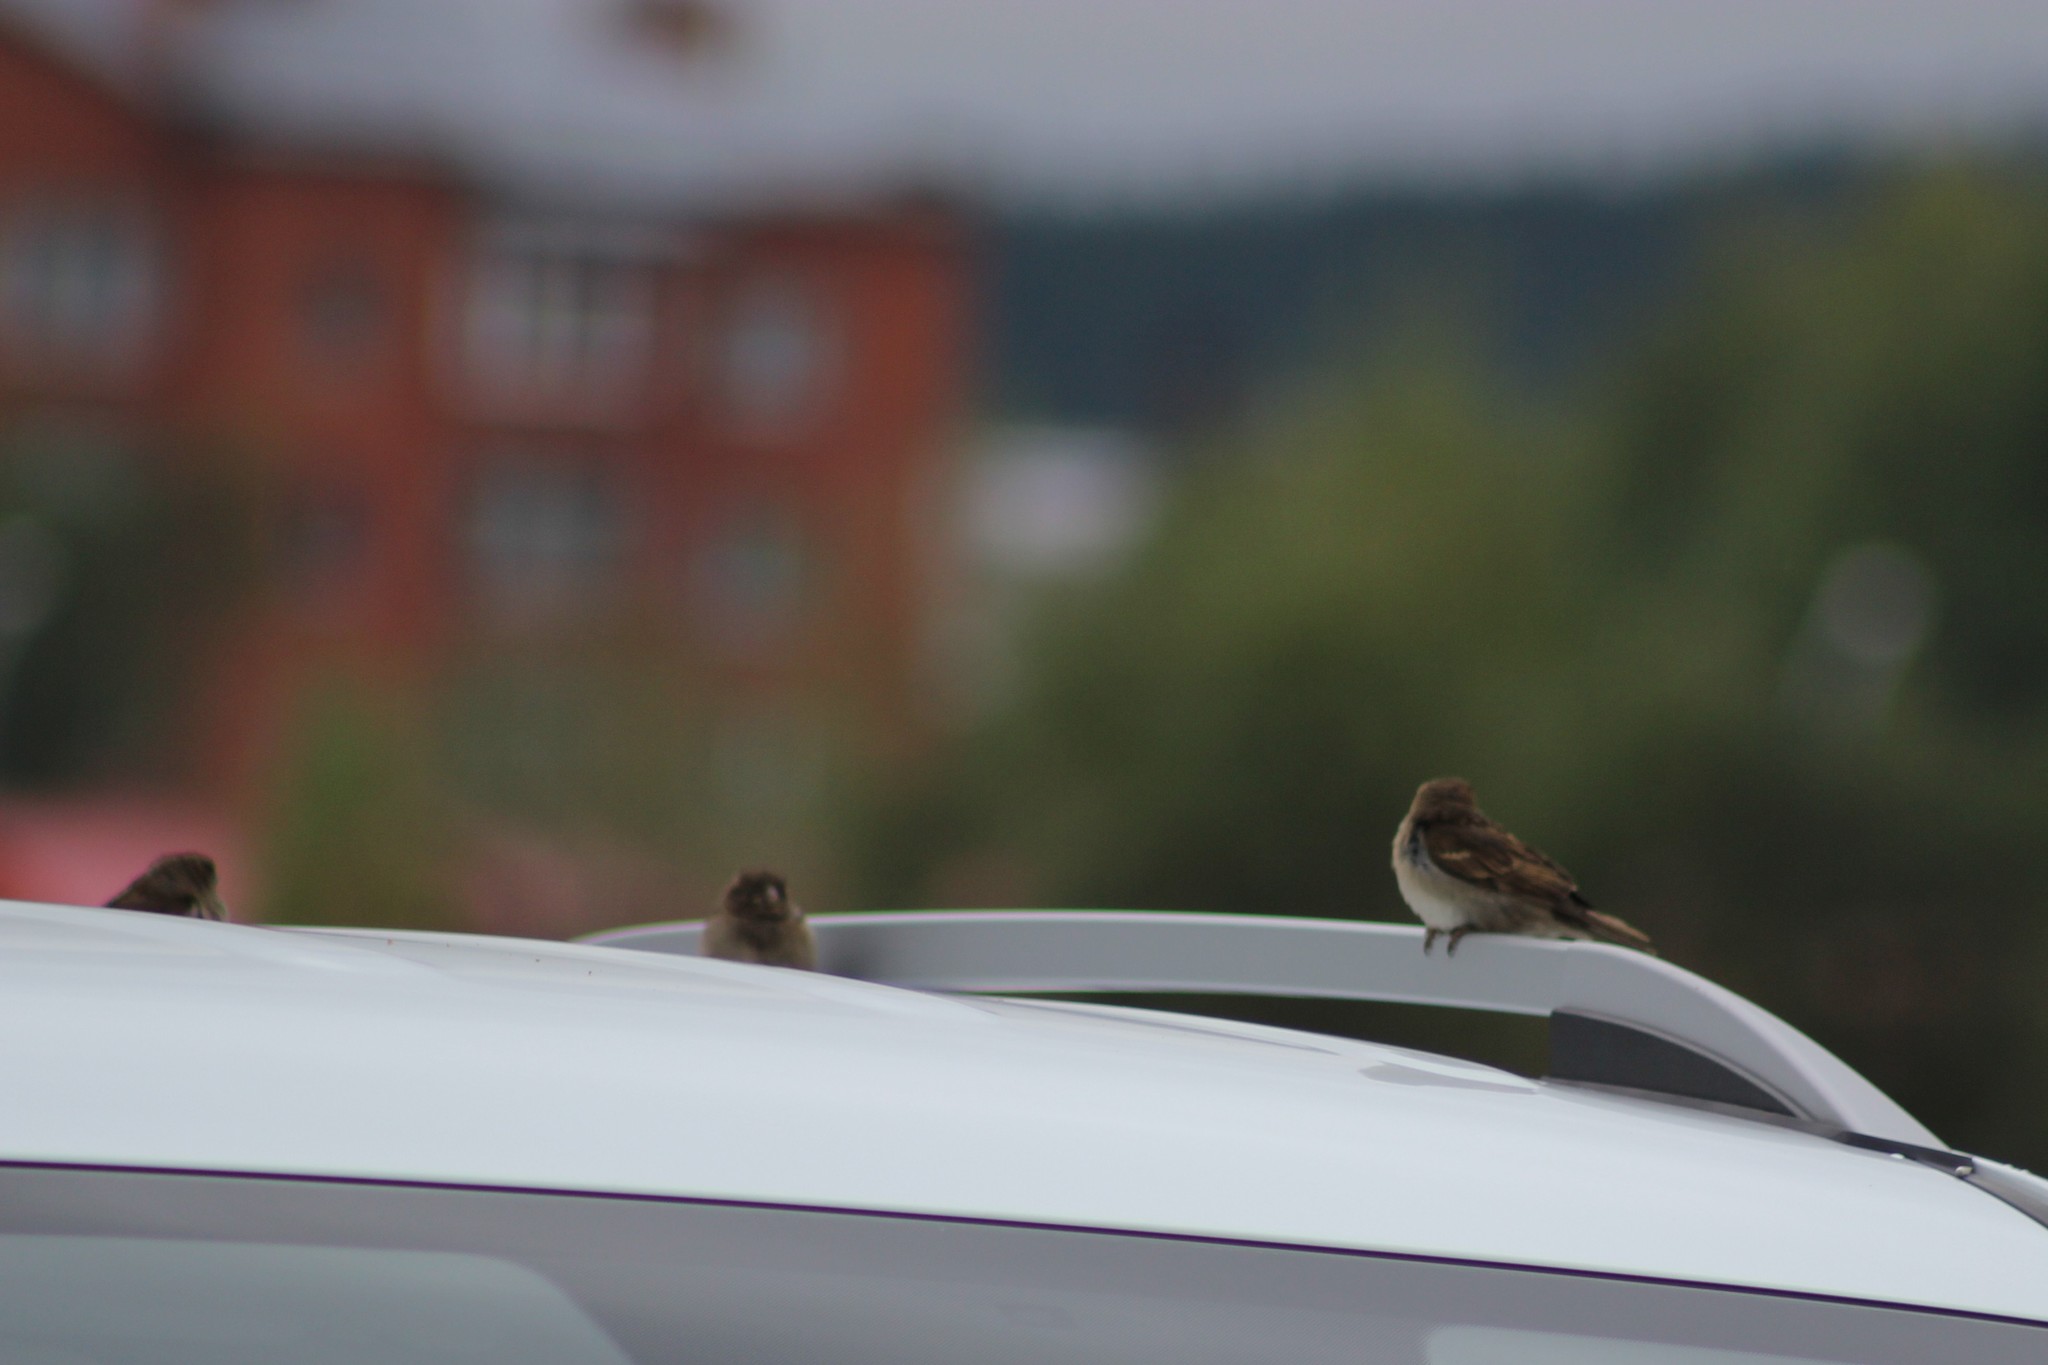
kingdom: Animalia
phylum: Chordata
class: Aves
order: Passeriformes
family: Passeridae
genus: Passer
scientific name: Passer domesticus
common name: House sparrow
